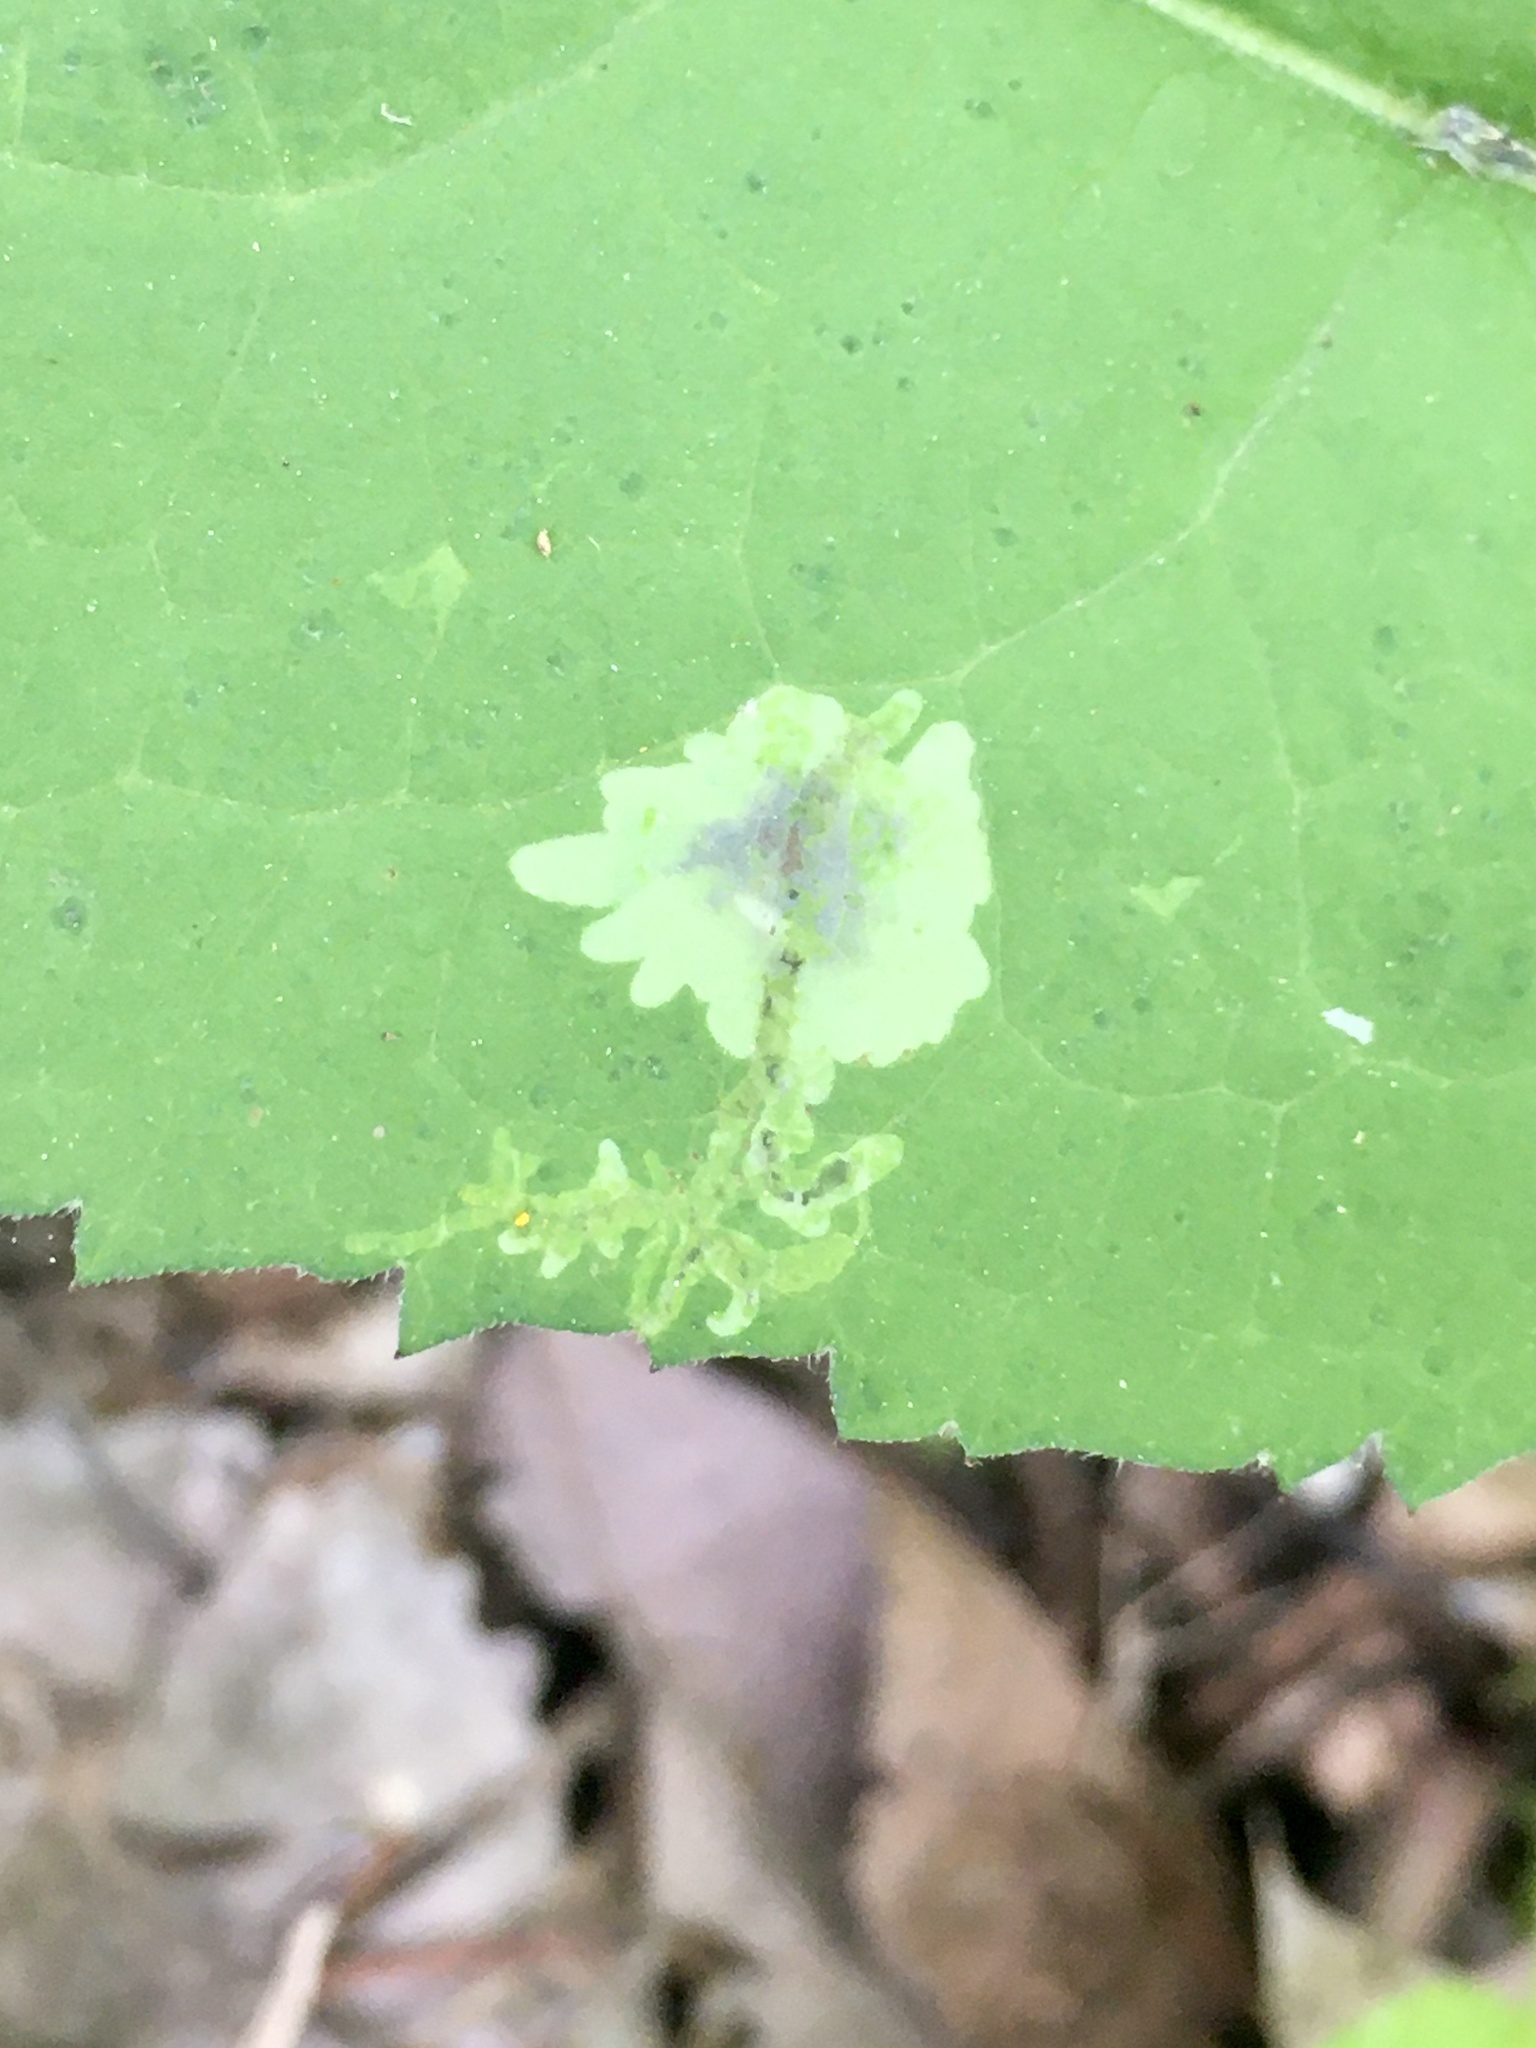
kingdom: Animalia
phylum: Arthropoda
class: Insecta
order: Diptera
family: Agromyzidae
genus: Calycomyza
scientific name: Calycomyza promissa
